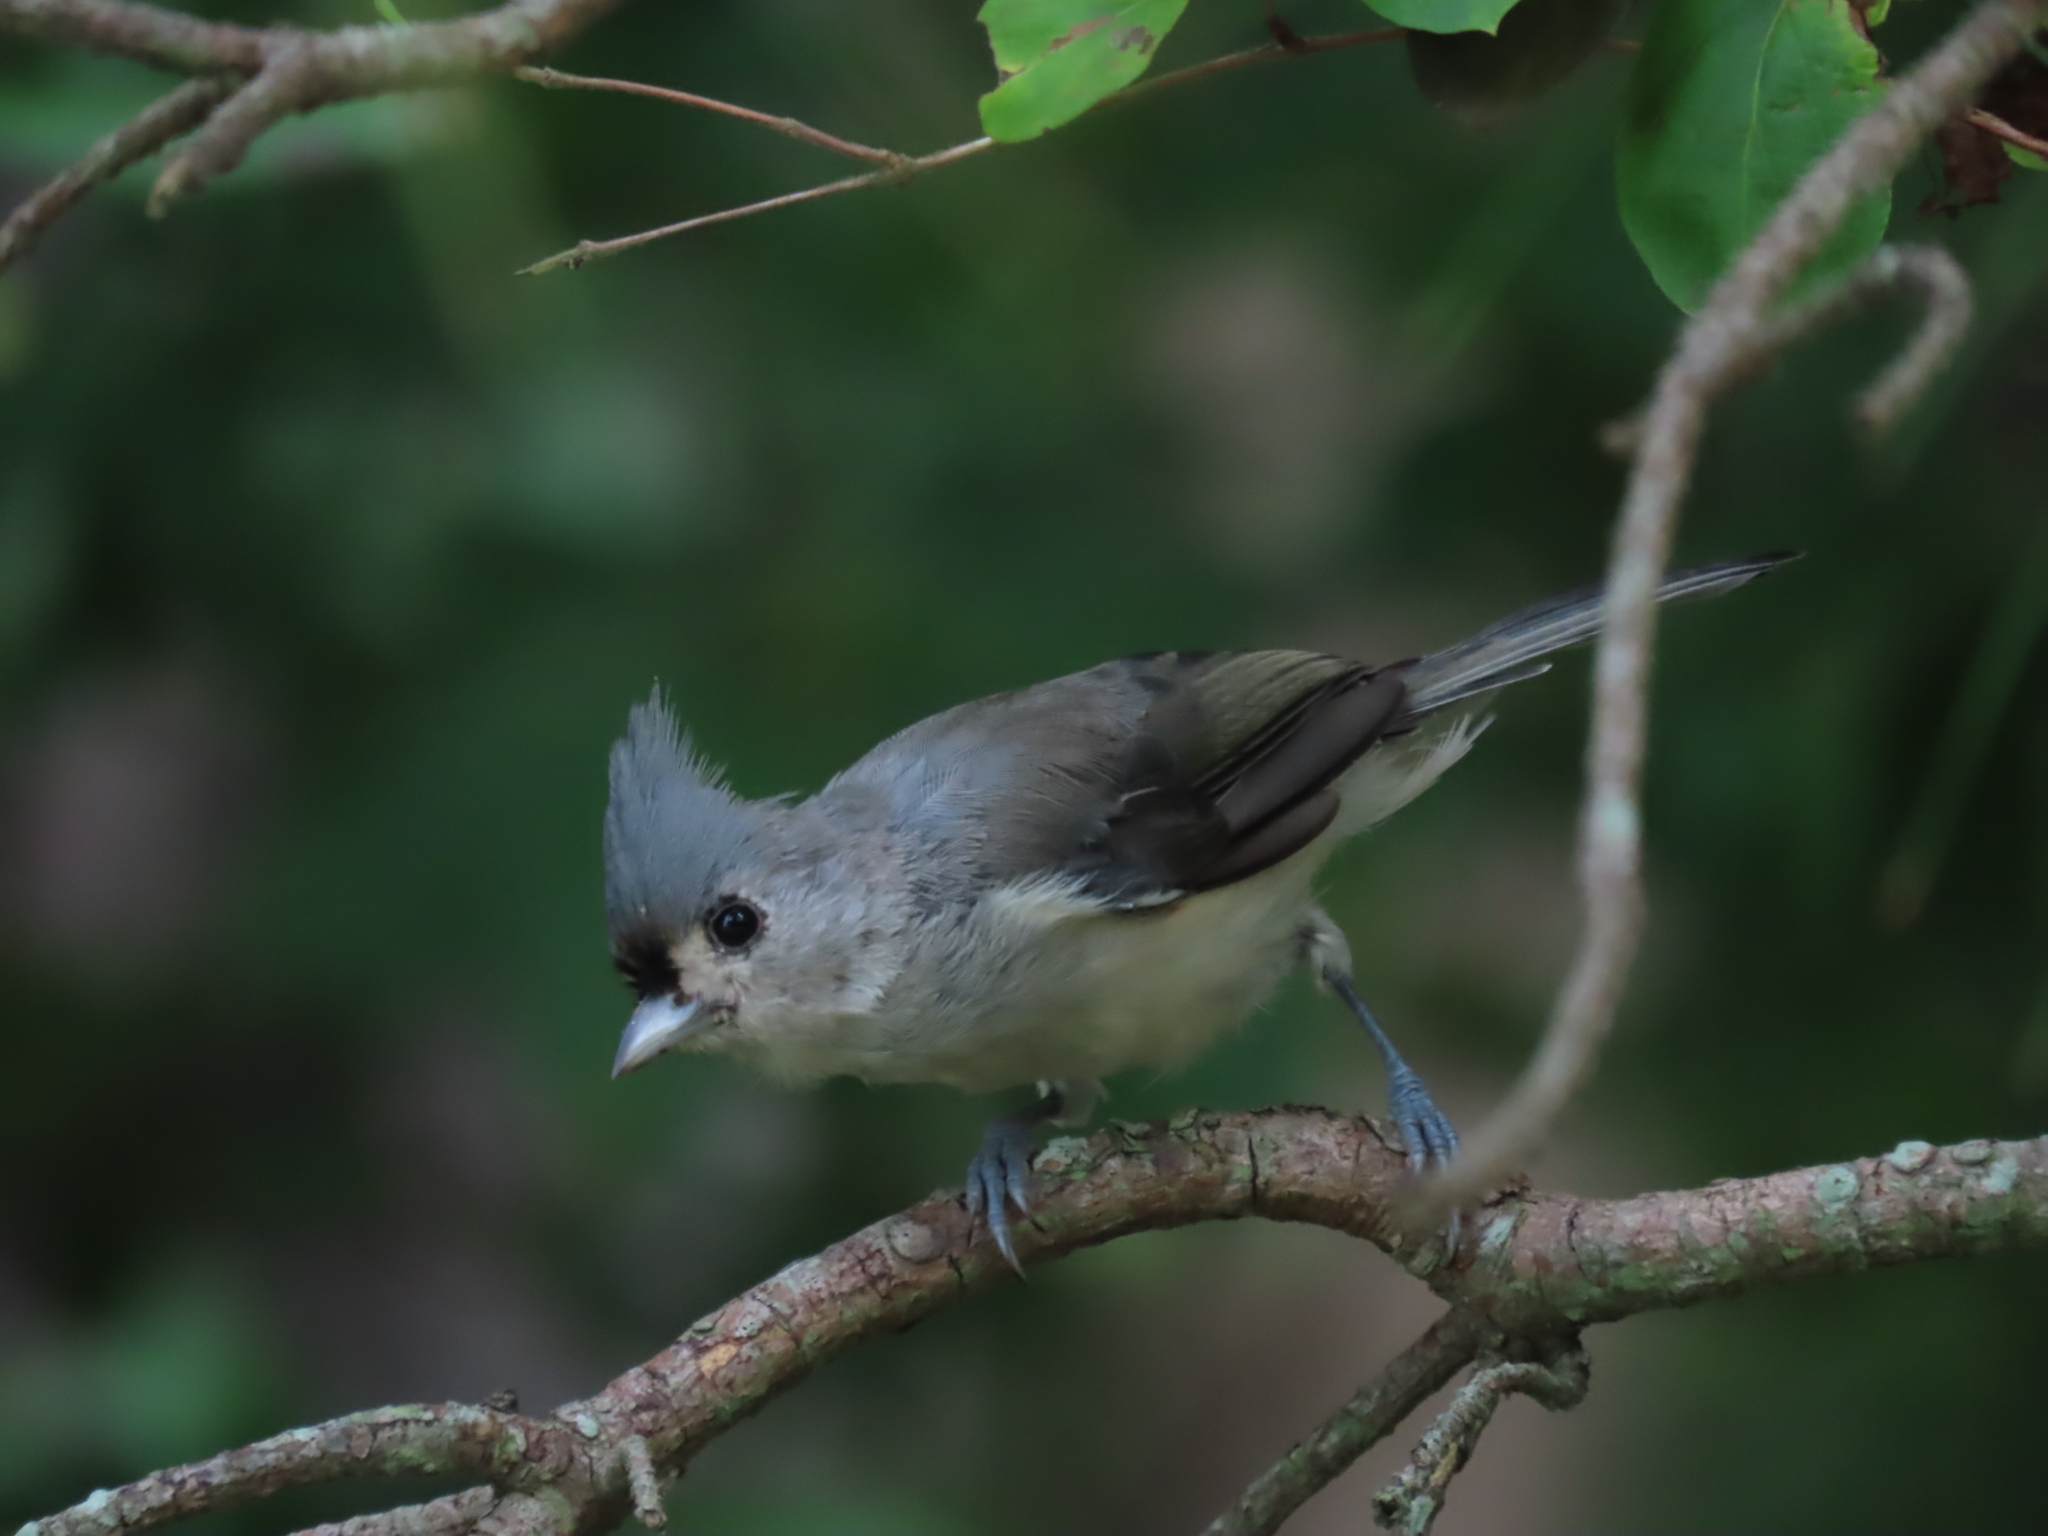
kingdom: Animalia
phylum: Chordata
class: Aves
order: Passeriformes
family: Paridae
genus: Baeolophus
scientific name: Baeolophus bicolor
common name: Tufted titmouse
